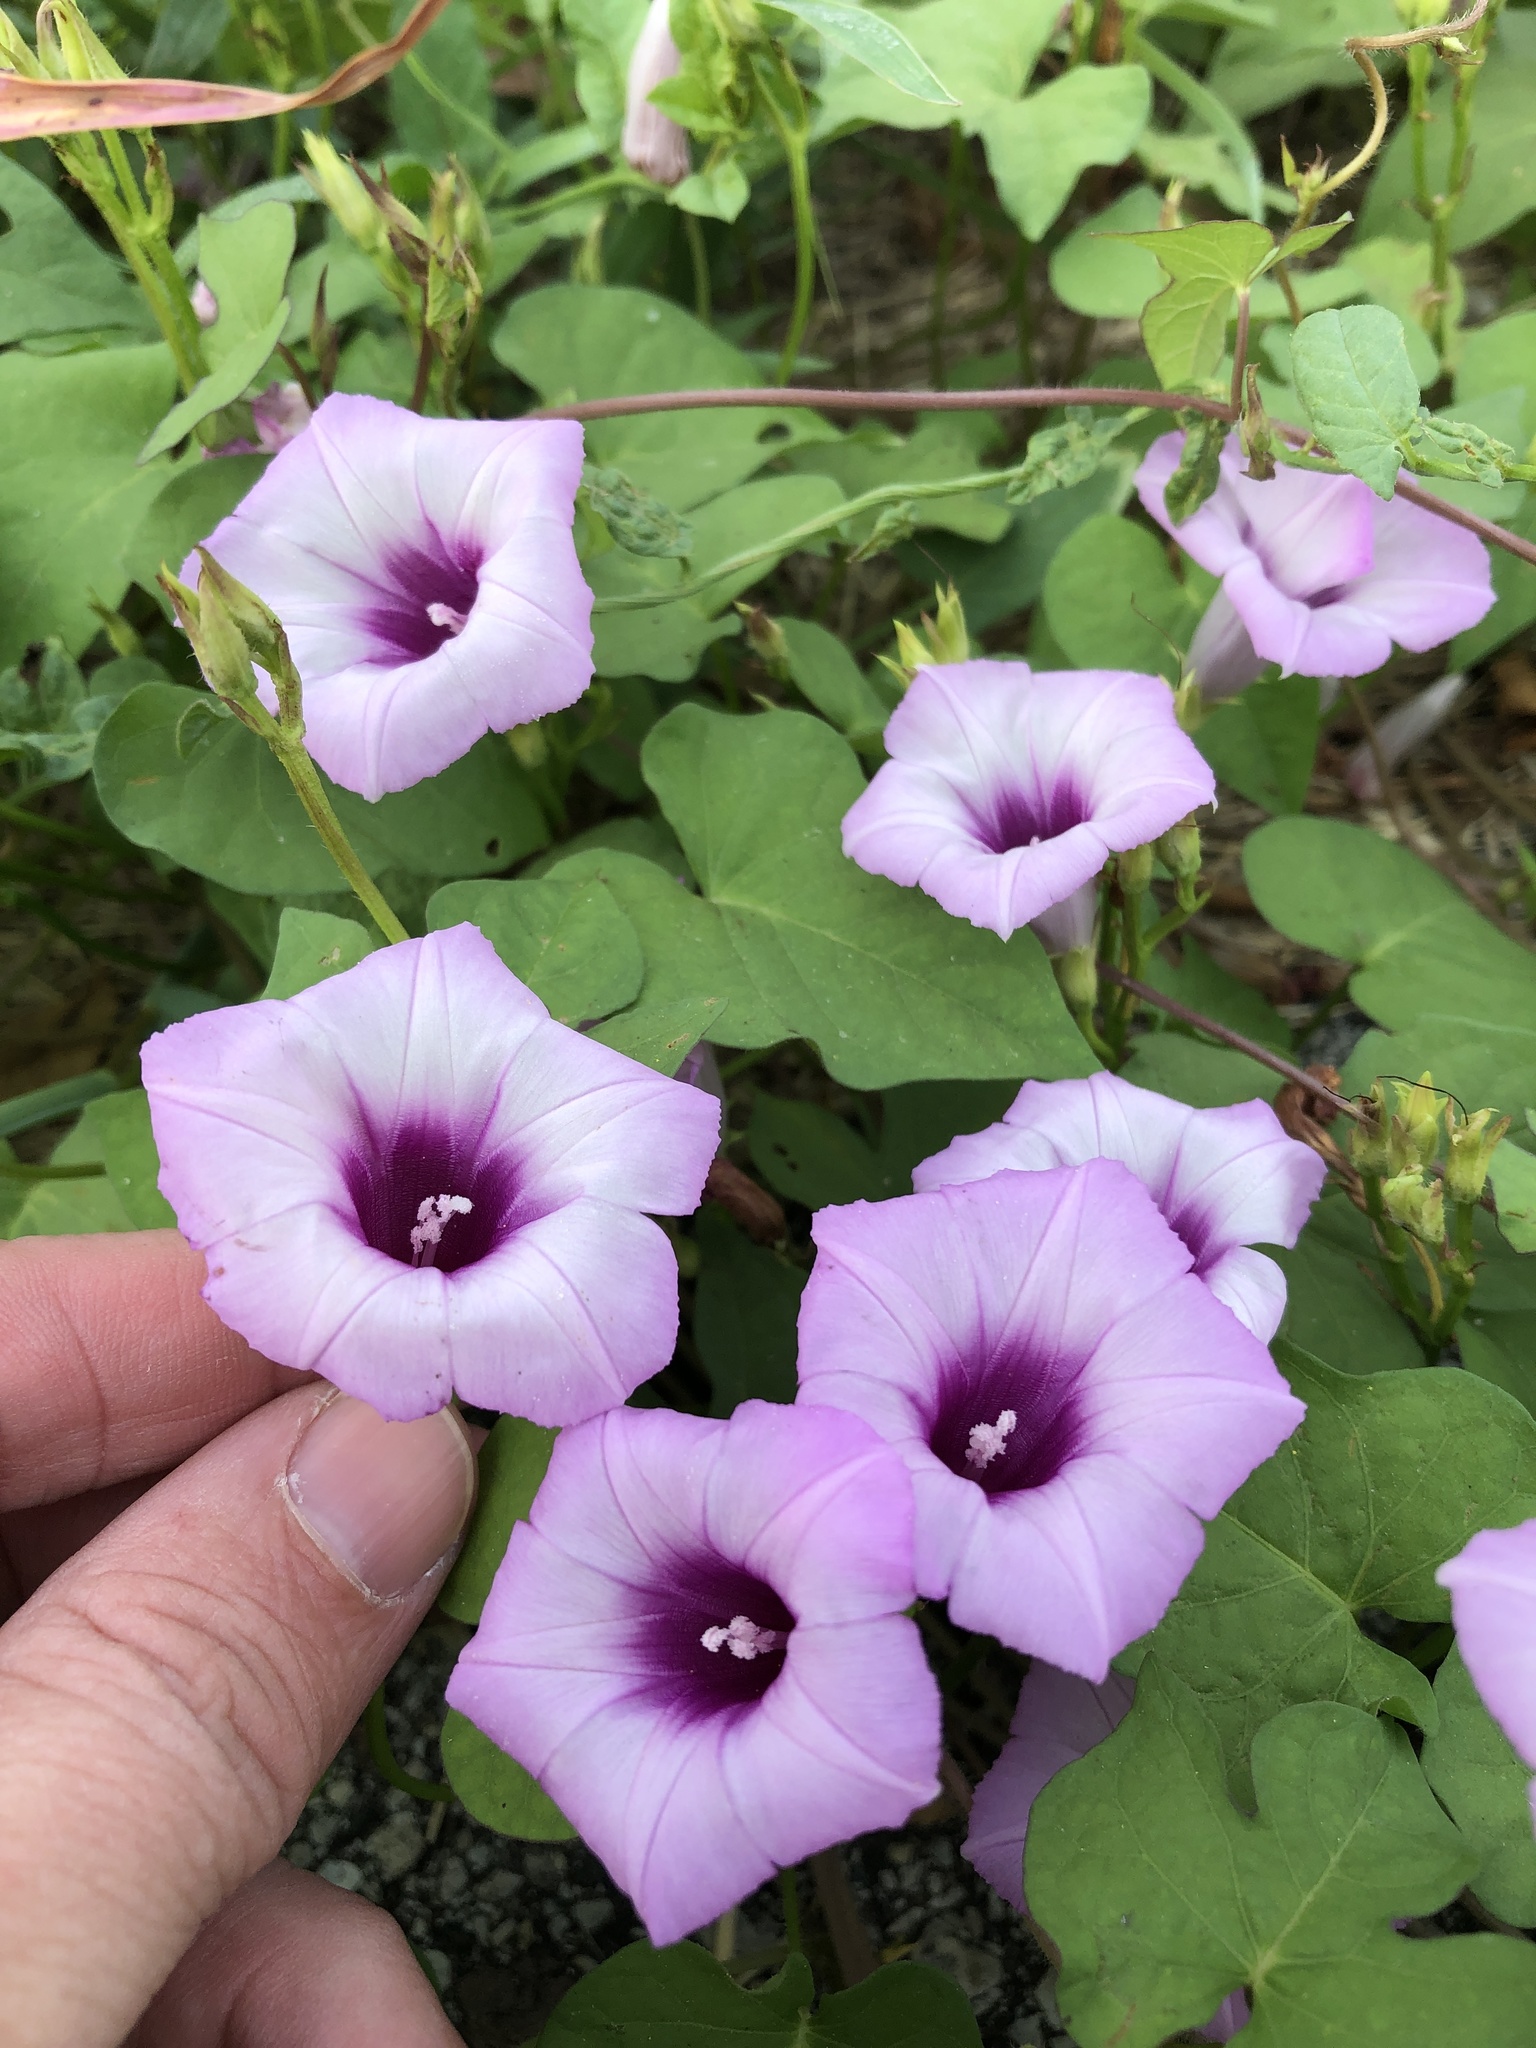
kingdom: Plantae
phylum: Tracheophyta
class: Magnoliopsida
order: Solanales
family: Convolvulaceae
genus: Ipomoea
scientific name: Ipomoea cordatotriloba
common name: Cotton morning glory
